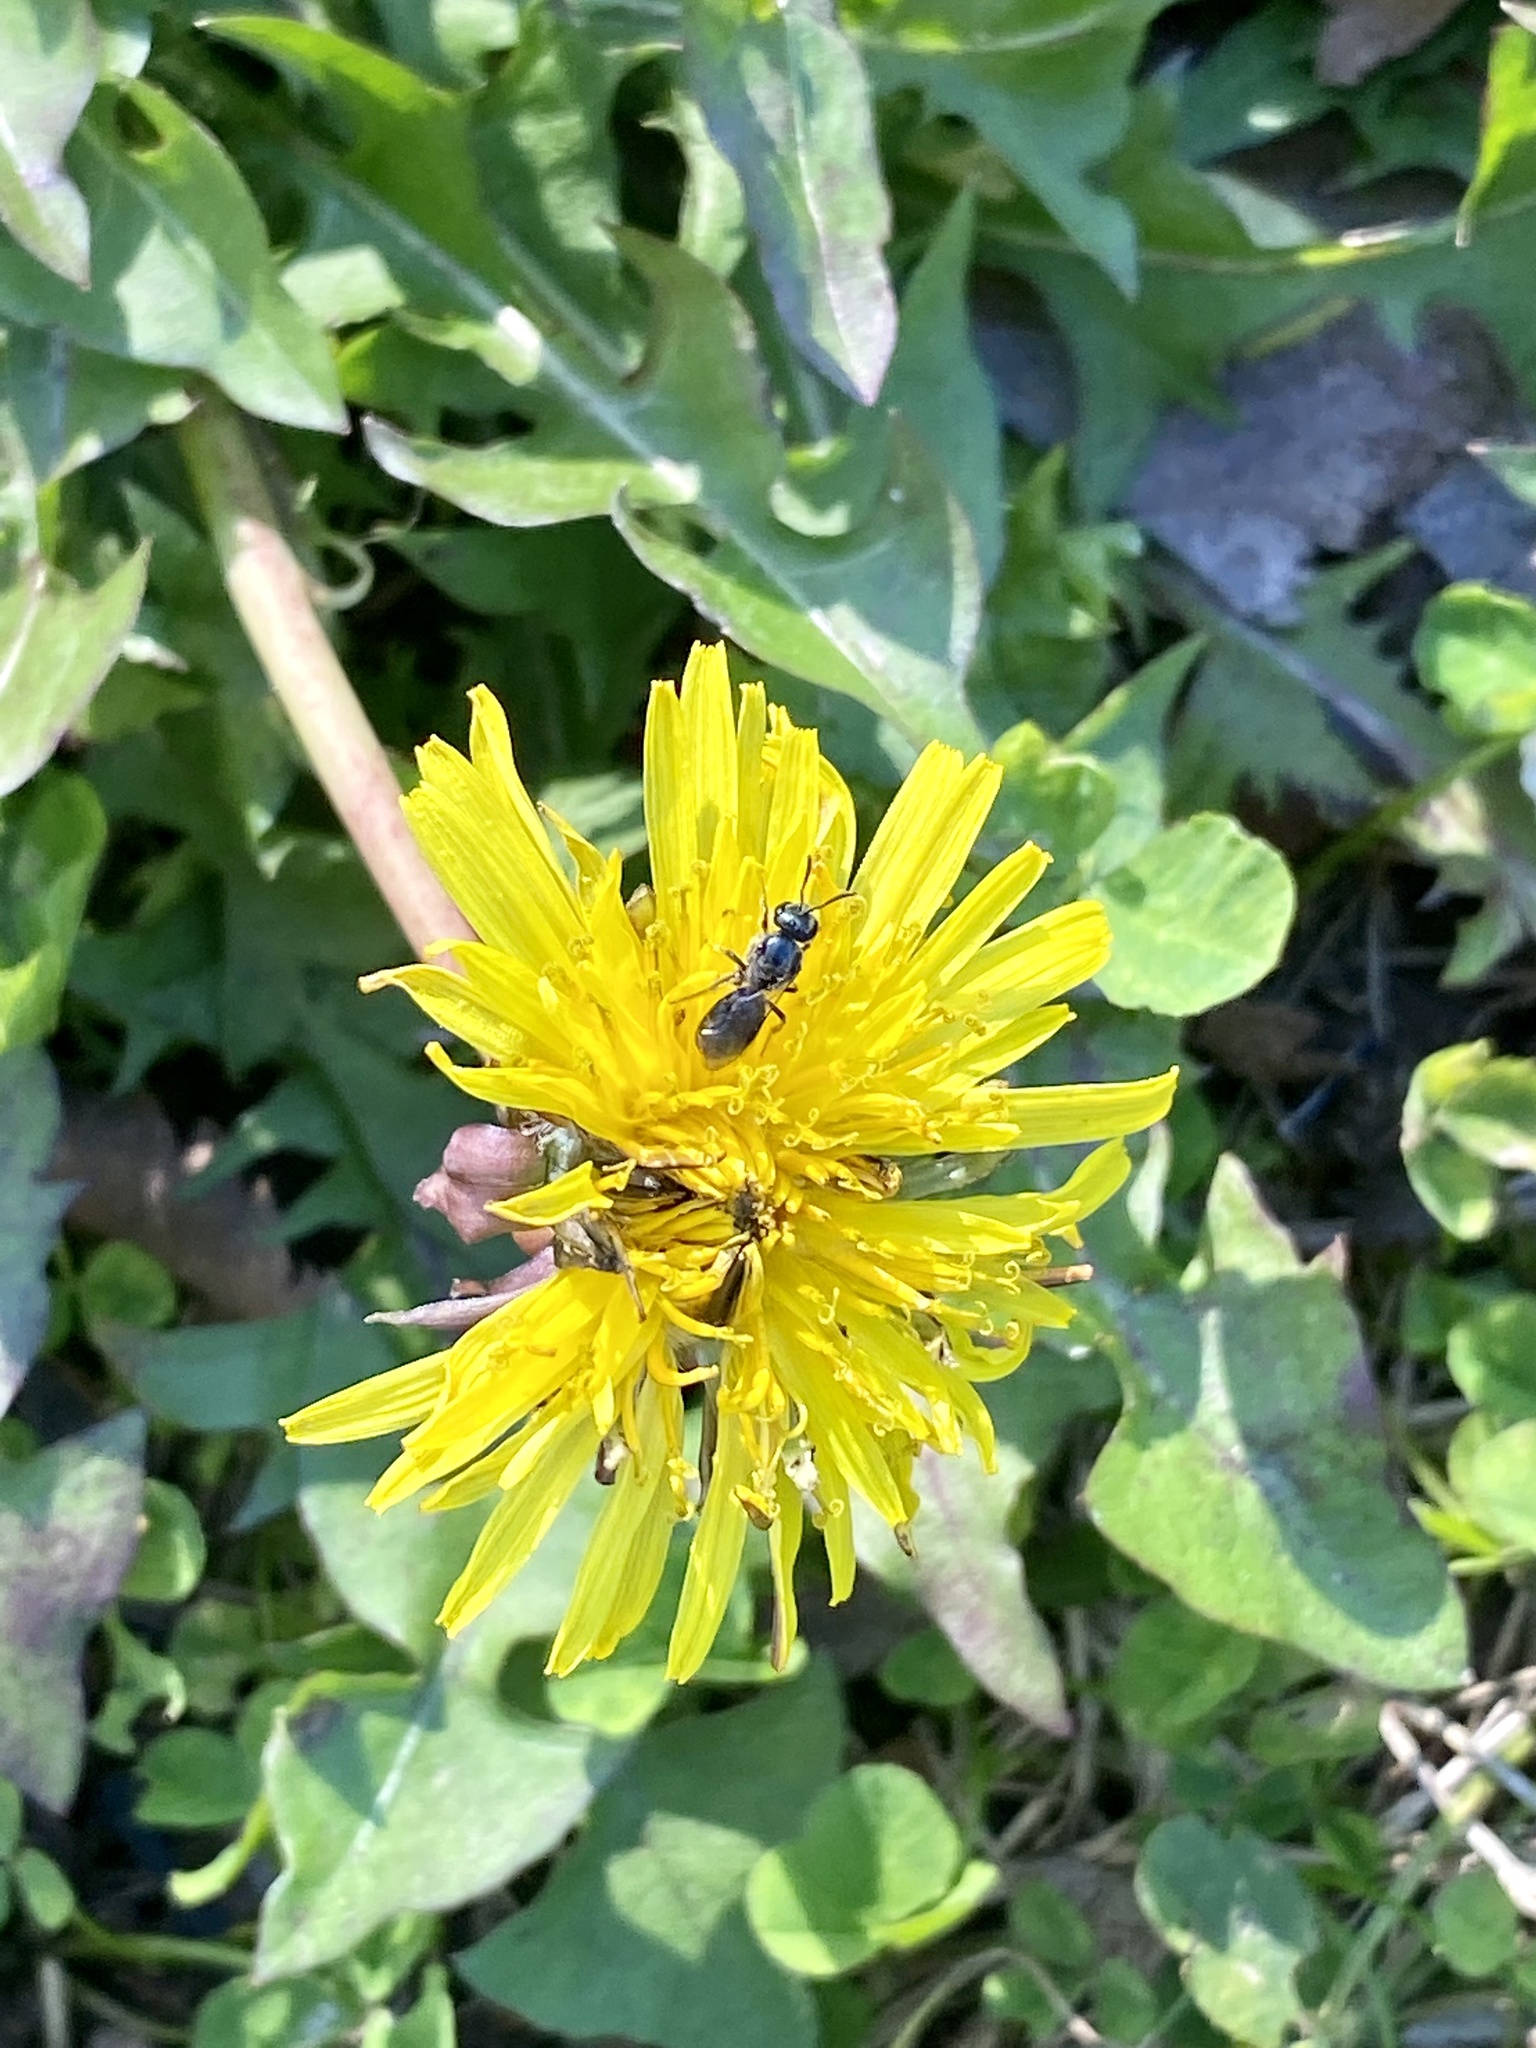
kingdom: Plantae
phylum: Tracheophyta
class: Magnoliopsida
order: Asterales
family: Asteraceae
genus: Taraxacum
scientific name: Taraxacum officinale
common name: Common dandelion
